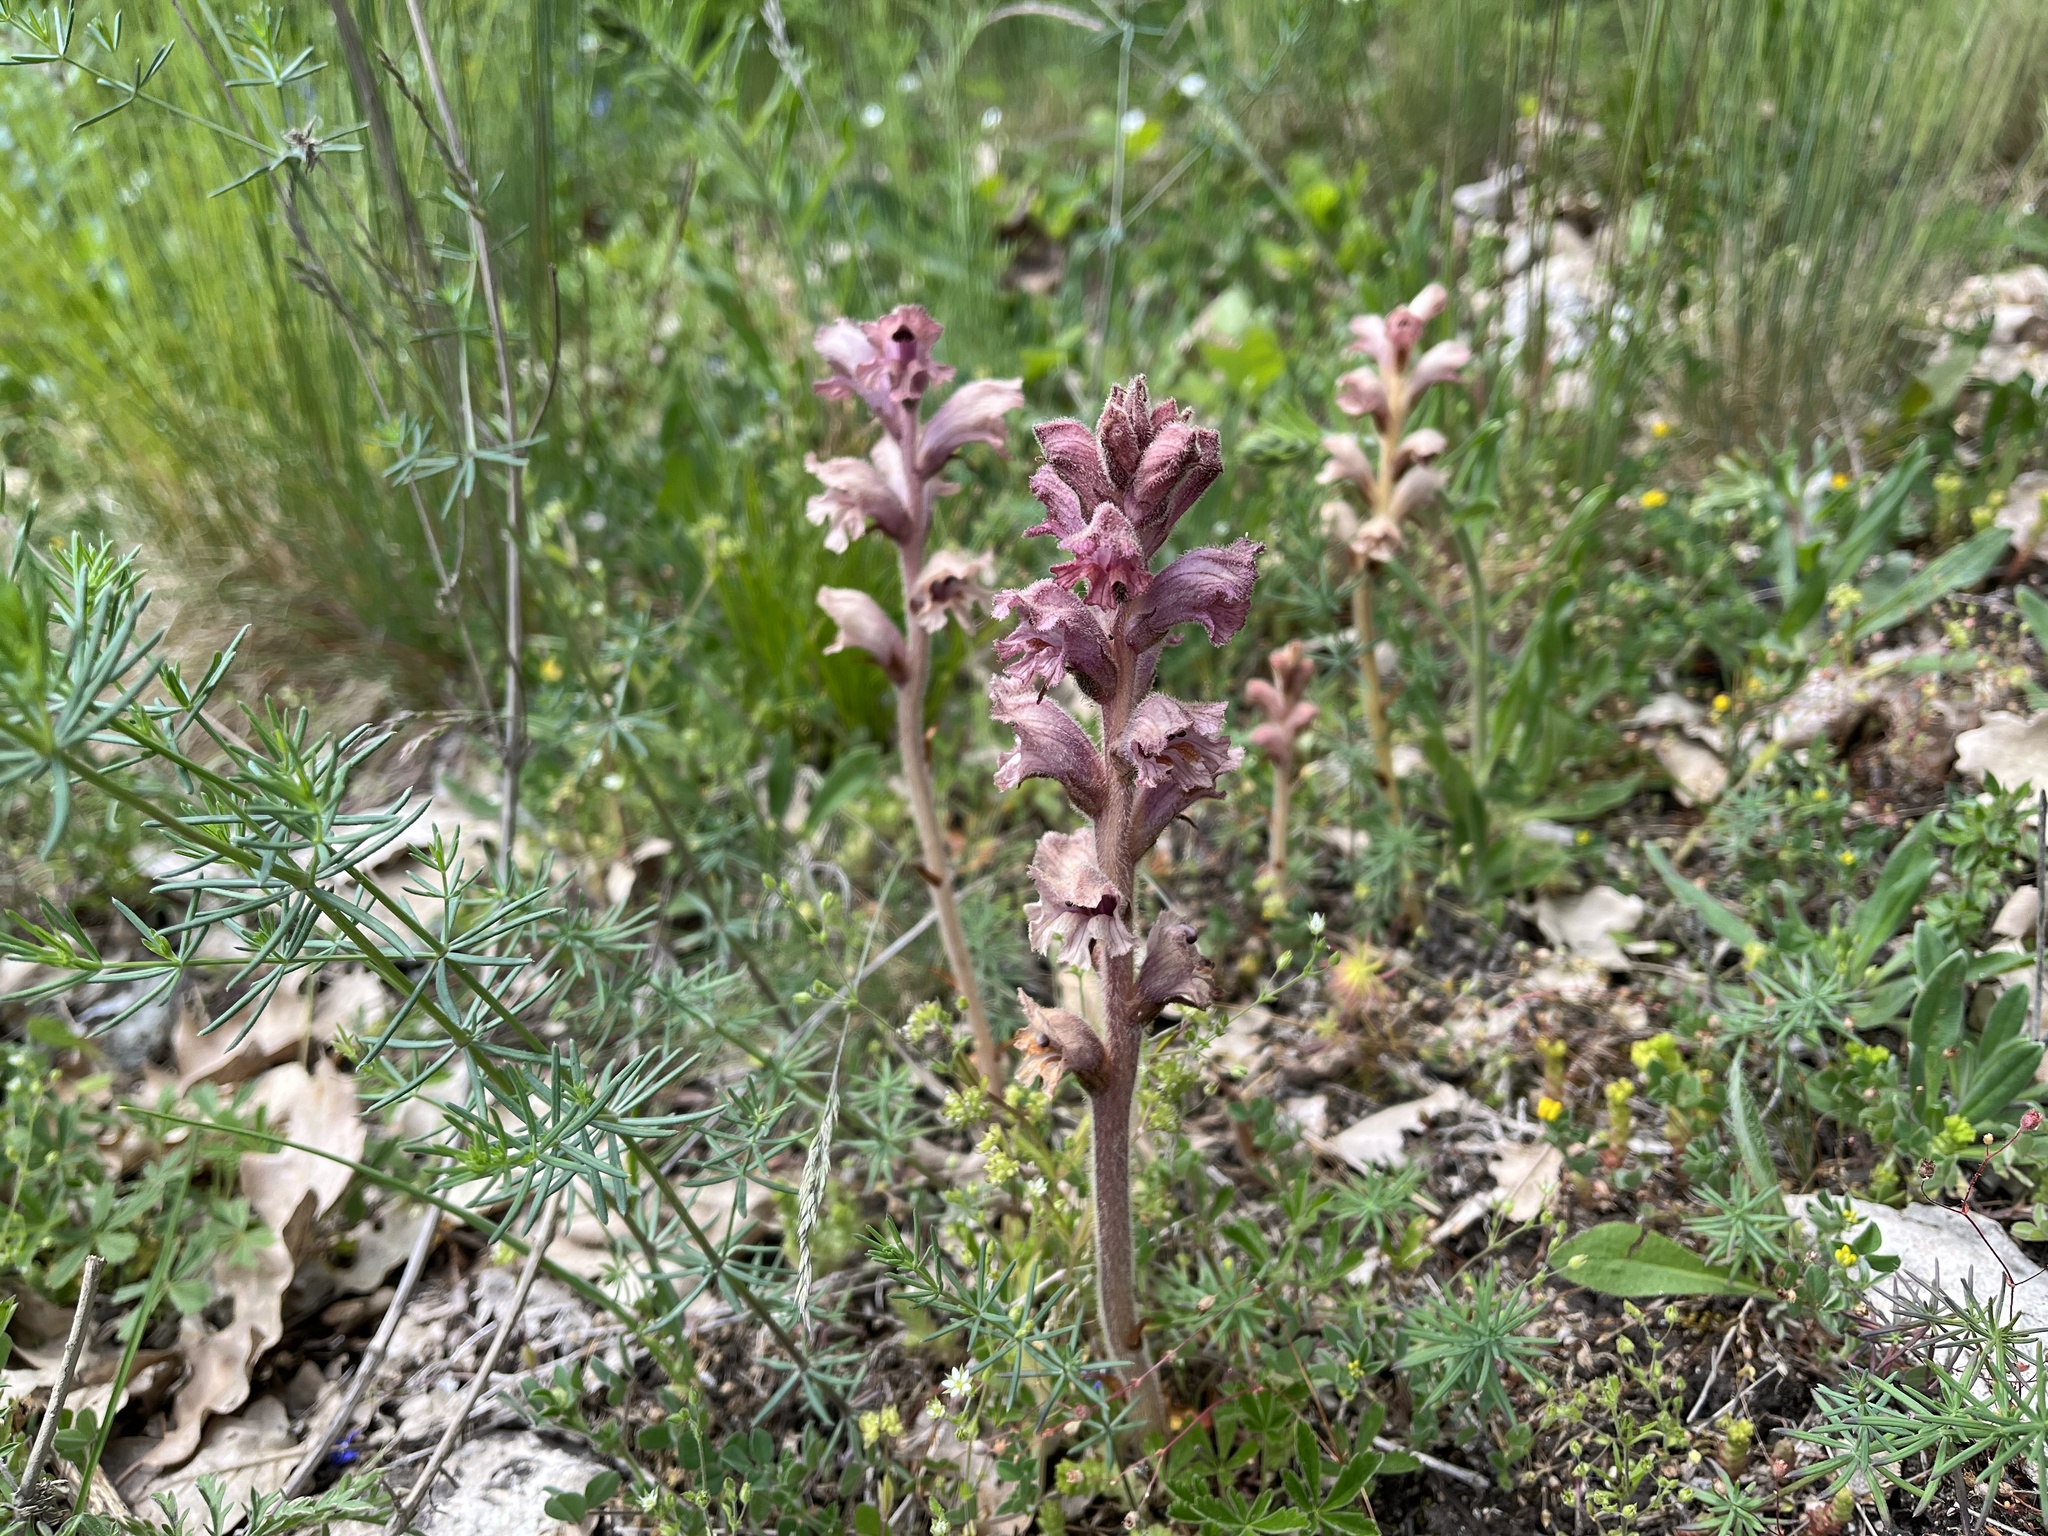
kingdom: Plantae
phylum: Tracheophyta
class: Magnoliopsida
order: Lamiales
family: Orobanchaceae
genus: Orobanche
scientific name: Orobanche caryophyllacea
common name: Bedstraw broomrape
